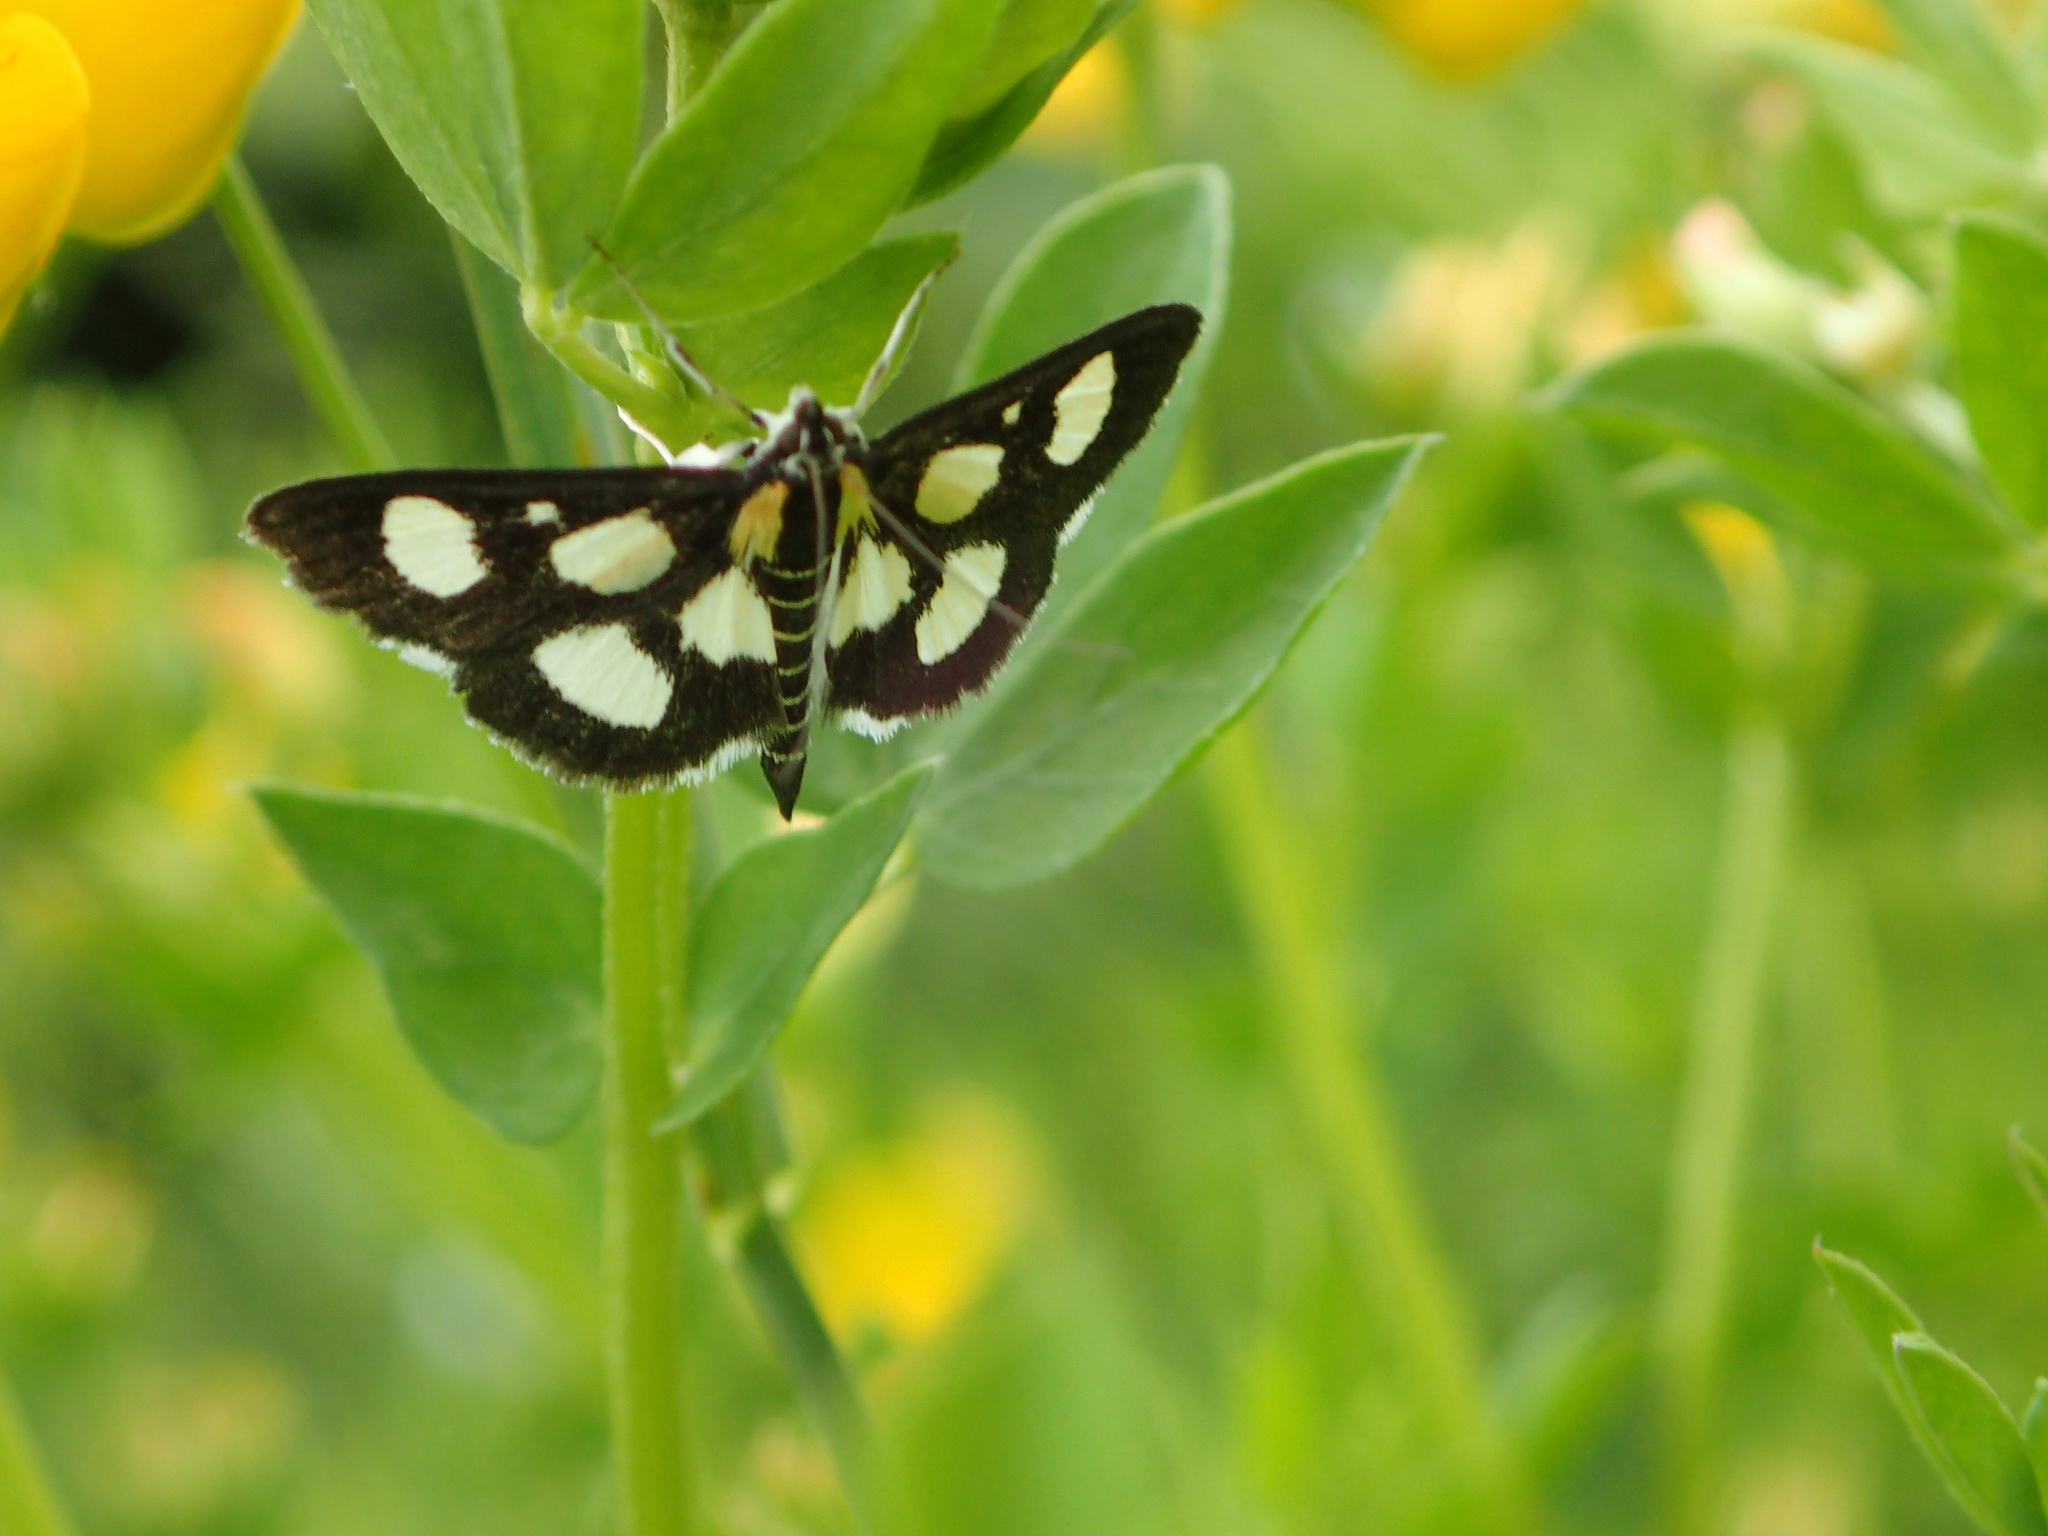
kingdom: Animalia
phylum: Arthropoda
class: Insecta
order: Lepidoptera
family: Crambidae
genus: Anania
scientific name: Anania funebris
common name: White-spotted sable moth
